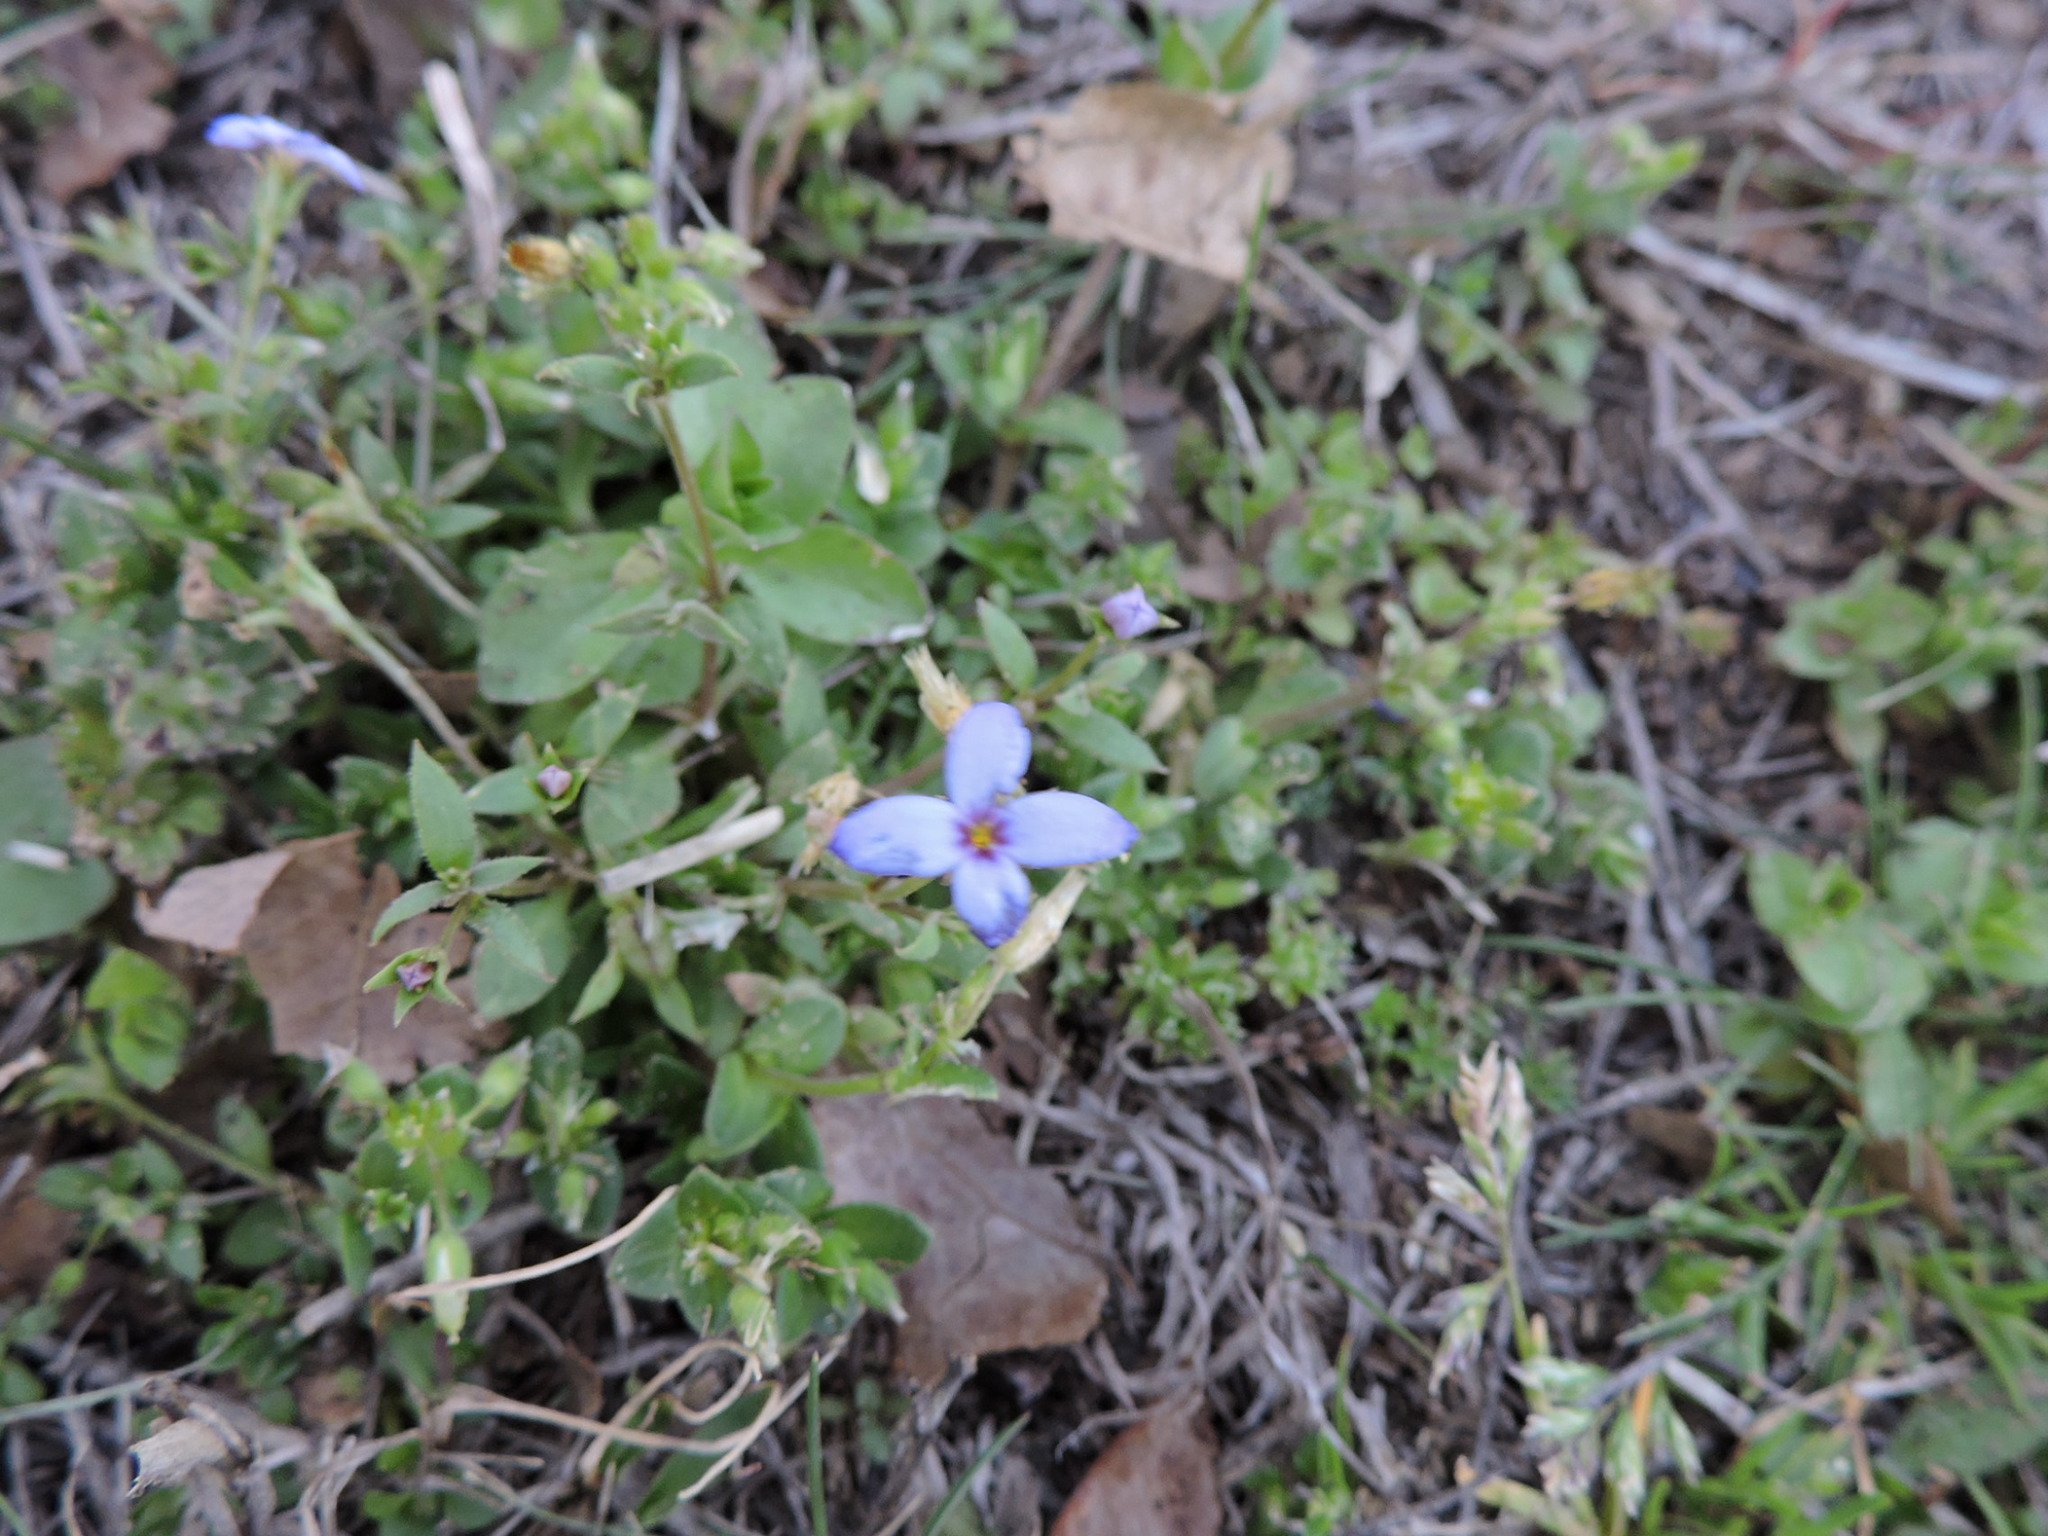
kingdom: Plantae
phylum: Tracheophyta
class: Magnoliopsida
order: Gentianales
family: Rubiaceae
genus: Houstonia
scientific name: Houstonia pusilla
